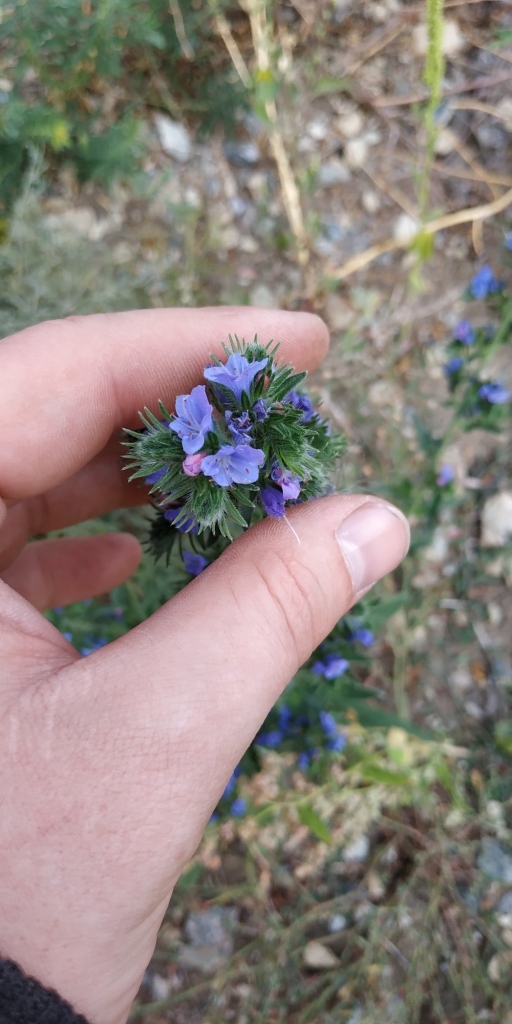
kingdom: Plantae
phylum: Tracheophyta
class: Magnoliopsida
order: Boraginales
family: Boraginaceae
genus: Echium
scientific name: Echium vulgare
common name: Common viper's bugloss
